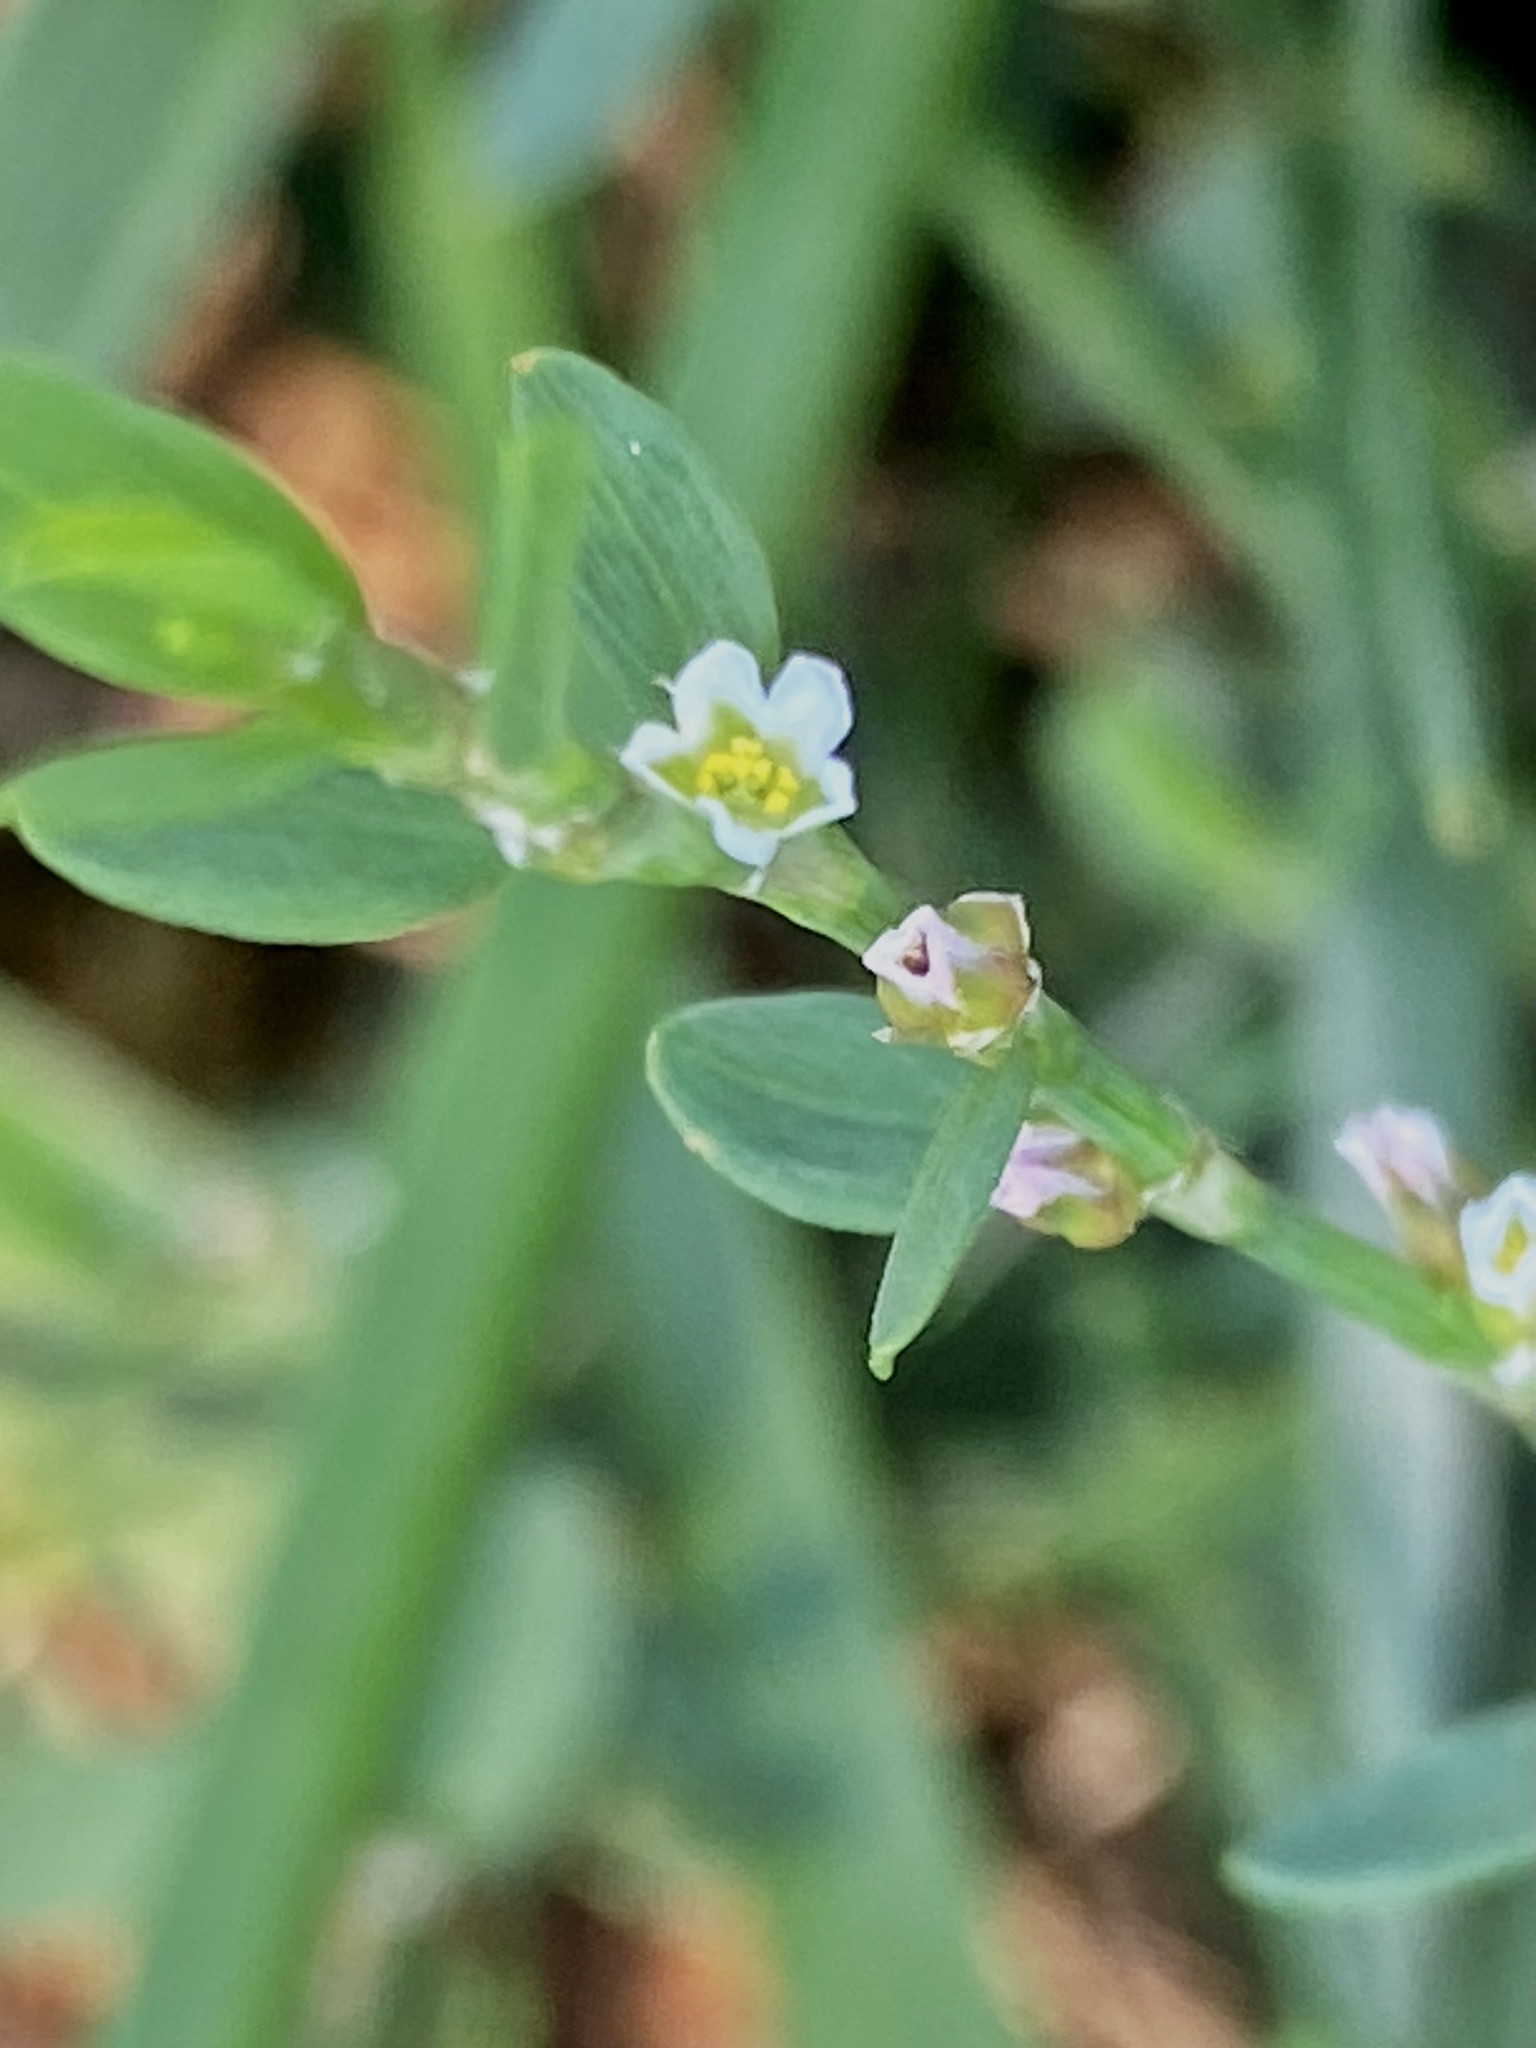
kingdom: Plantae
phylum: Tracheophyta
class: Magnoliopsida
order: Caryophyllales
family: Polygonaceae
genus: Polygonum
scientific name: Polygonum aviculare
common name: Prostrate knotweed
